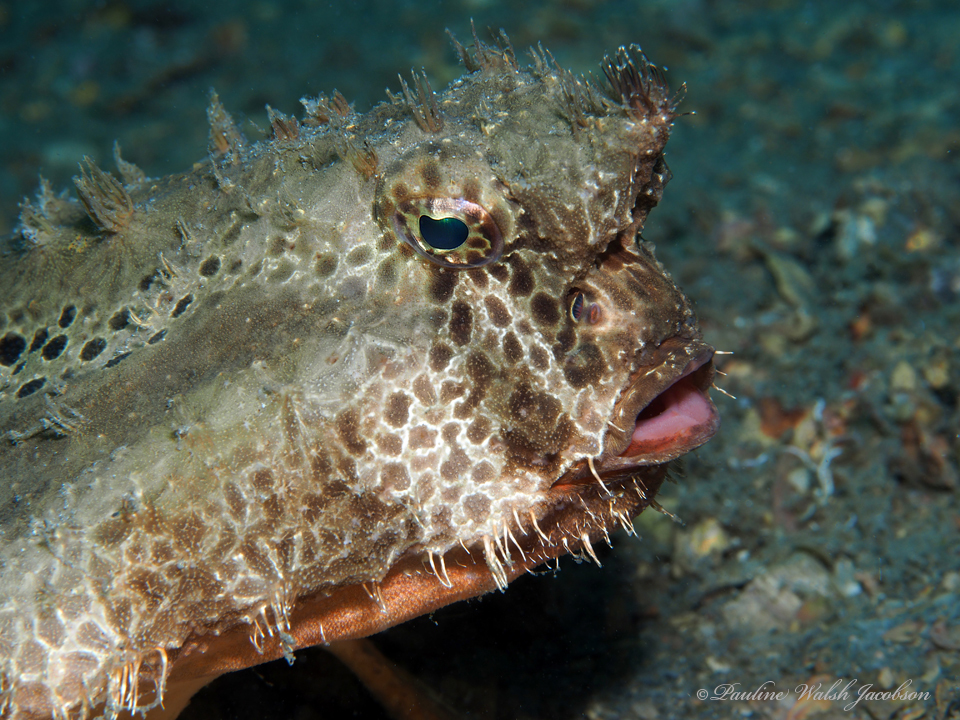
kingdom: Animalia
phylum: Chordata
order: Lophiiformes
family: Ogcocephalidae
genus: Ogcocephalus
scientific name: Ogcocephalus cubifrons
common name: Polka-dot batfish
